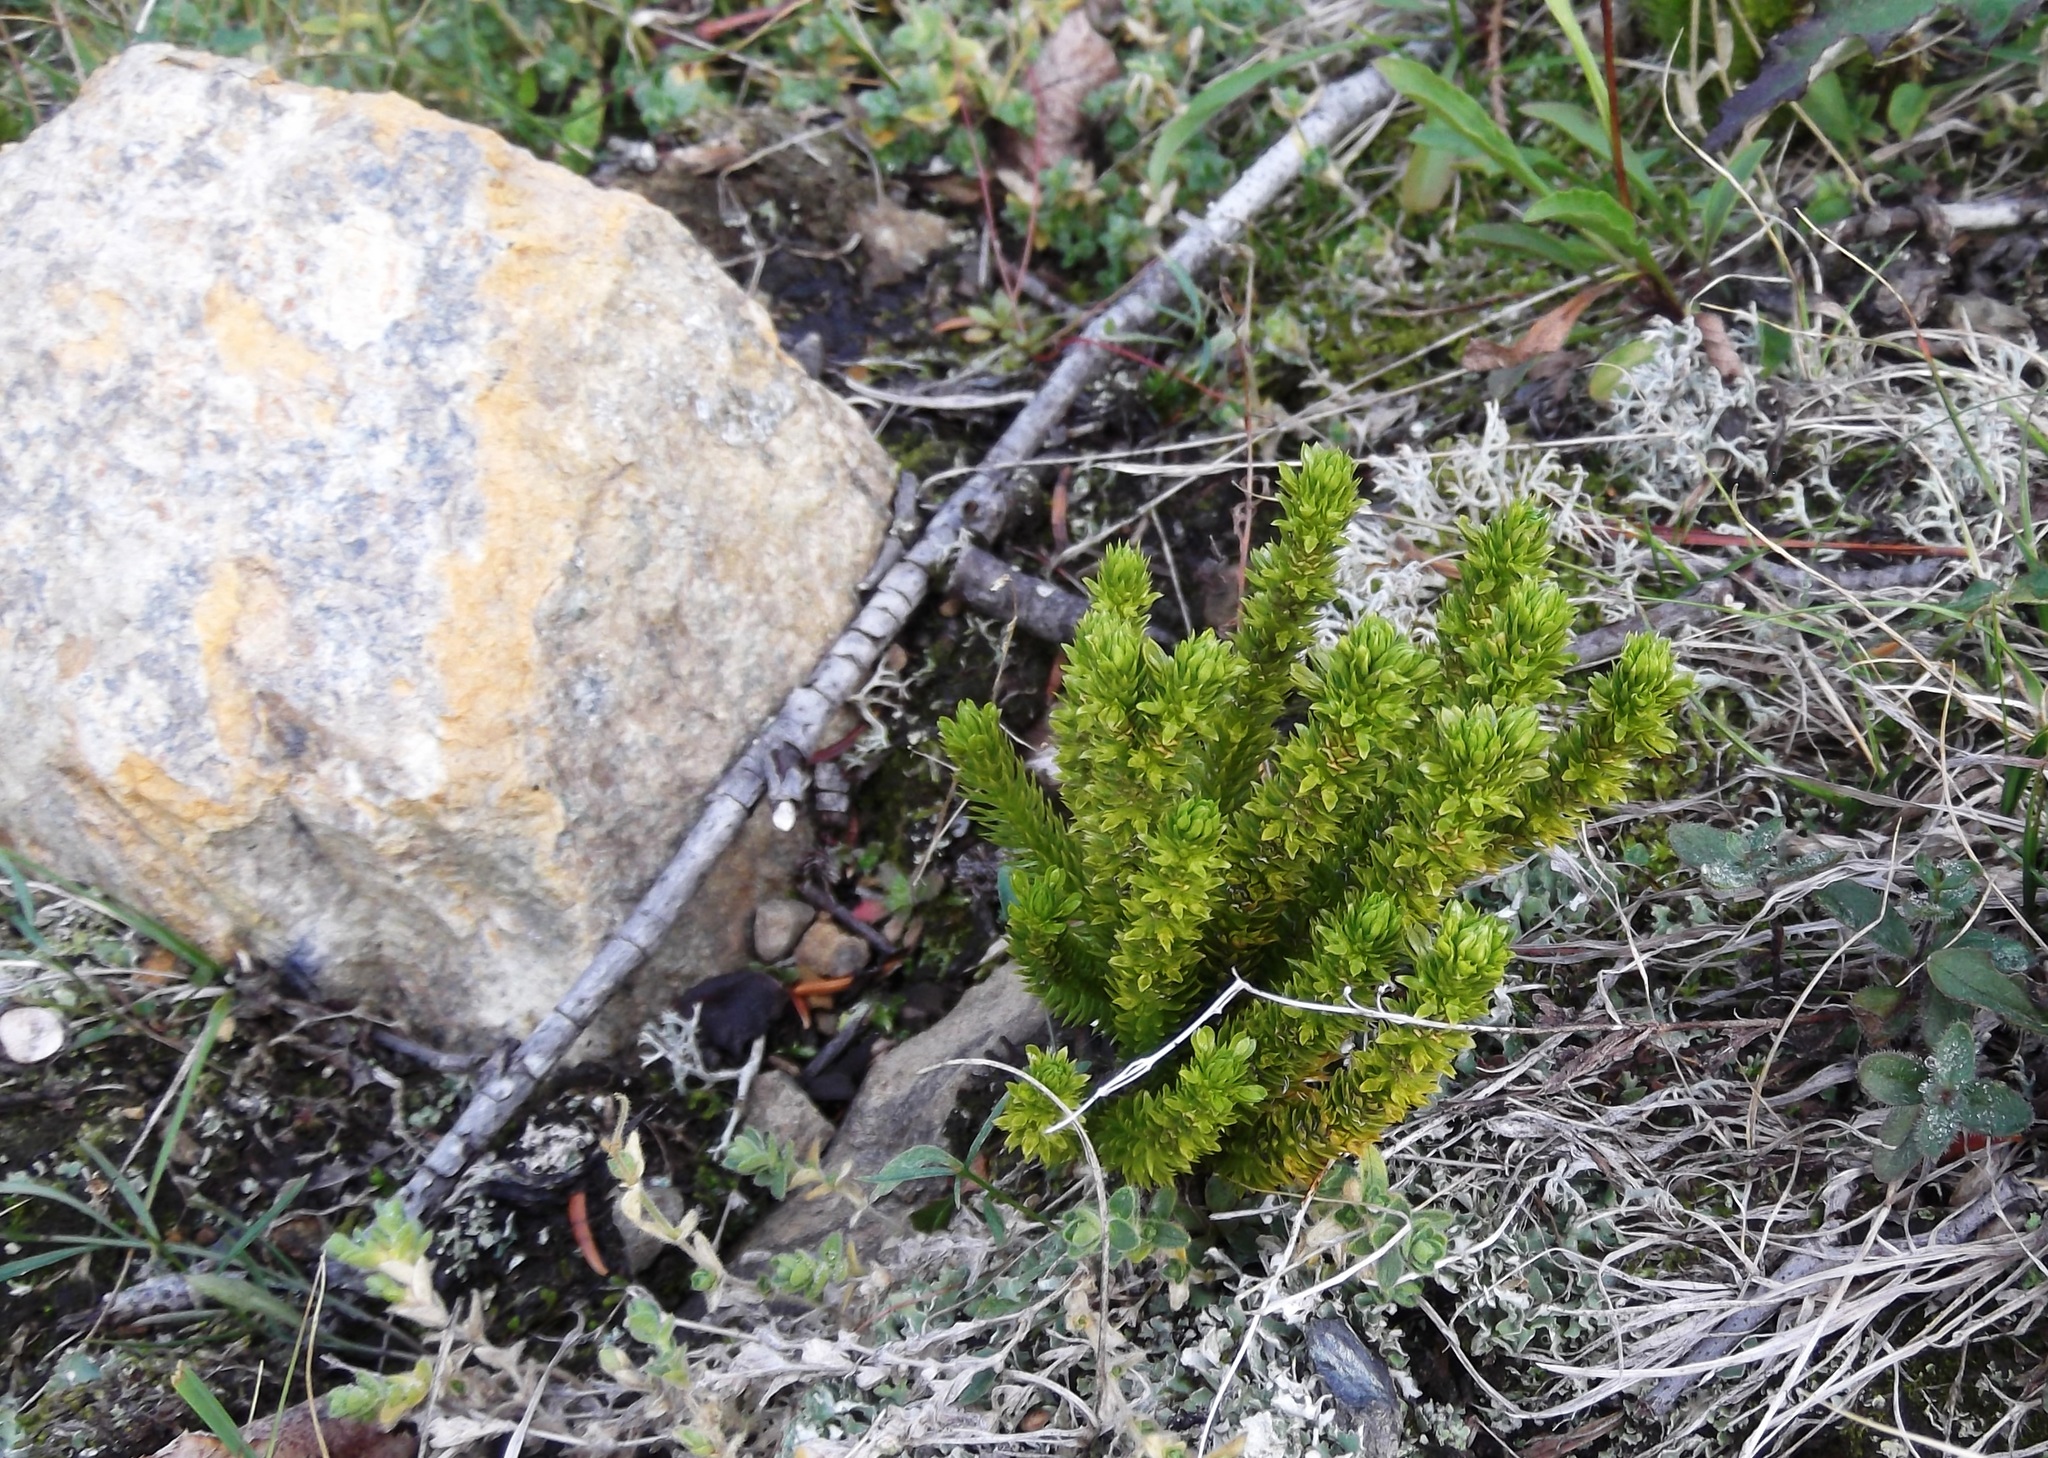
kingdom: Plantae
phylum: Tracheophyta
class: Lycopodiopsida
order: Lycopodiales
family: Lycopodiaceae
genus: Huperzia
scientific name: Huperzia miyoshiana
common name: Chinese clubmoss
